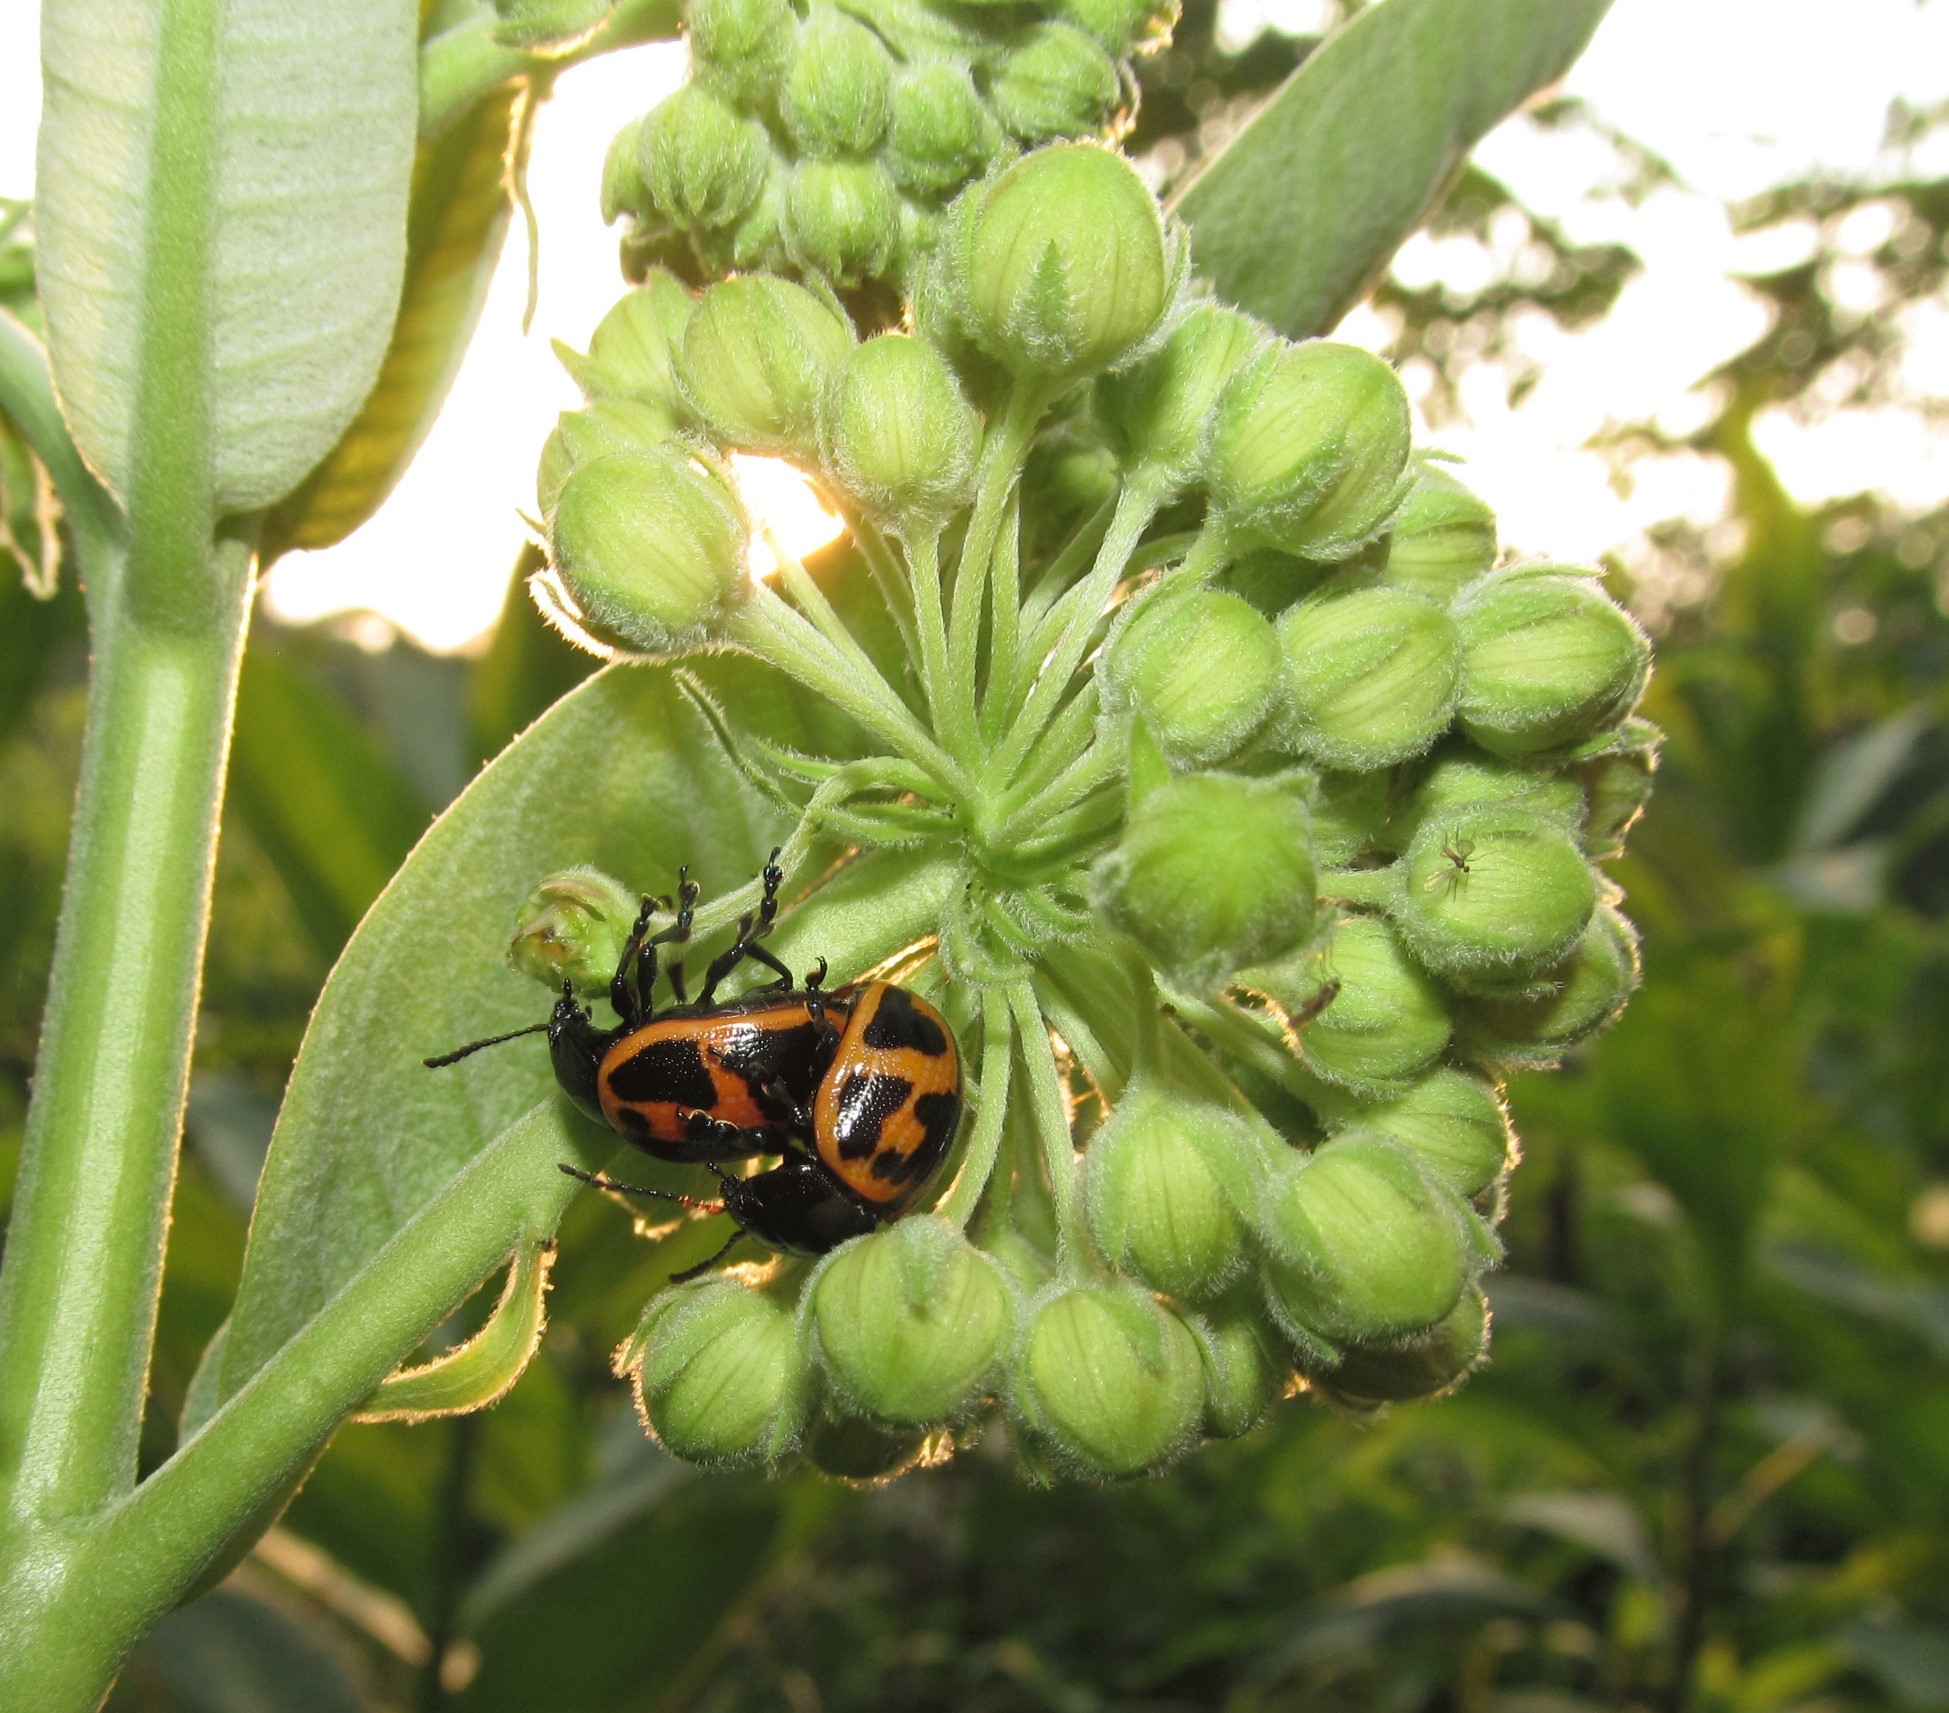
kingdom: Animalia
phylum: Arthropoda
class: Insecta
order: Coleoptera
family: Chrysomelidae
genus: Labidomera
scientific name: Labidomera clivicollis
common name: Swamp milkweed leaf beetle
